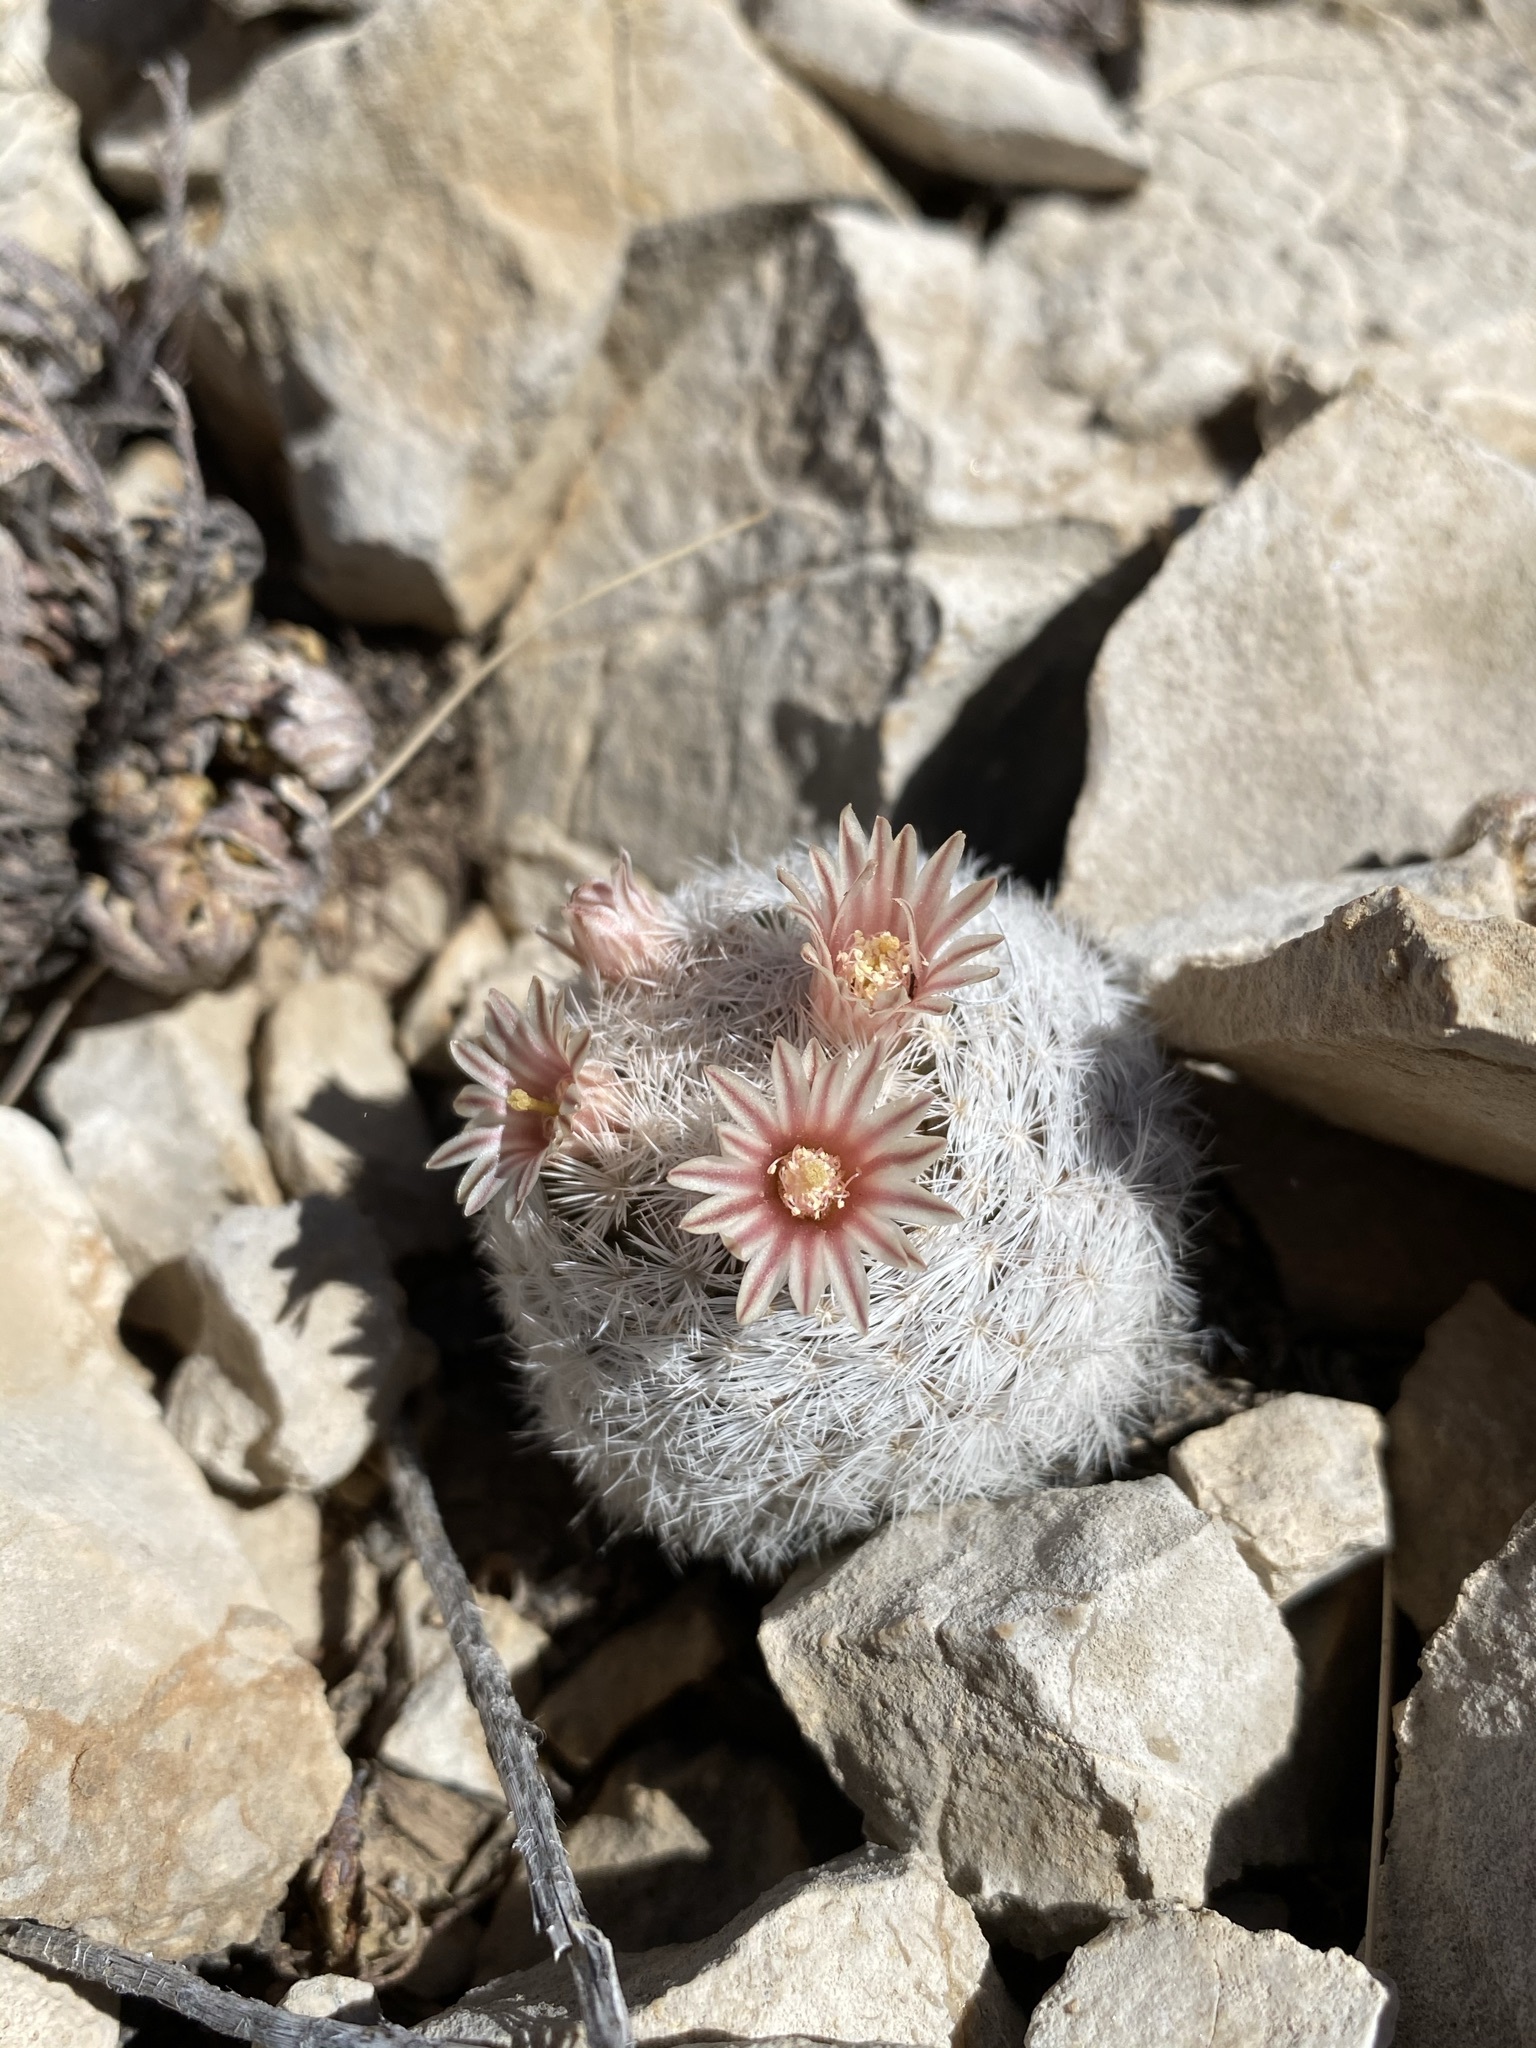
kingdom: Plantae
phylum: Tracheophyta
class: Magnoliopsida
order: Caryophyllales
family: Cactaceae
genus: Mammillaria
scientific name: Mammillaria lasiacantha
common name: Lace-spine nipple cactus
